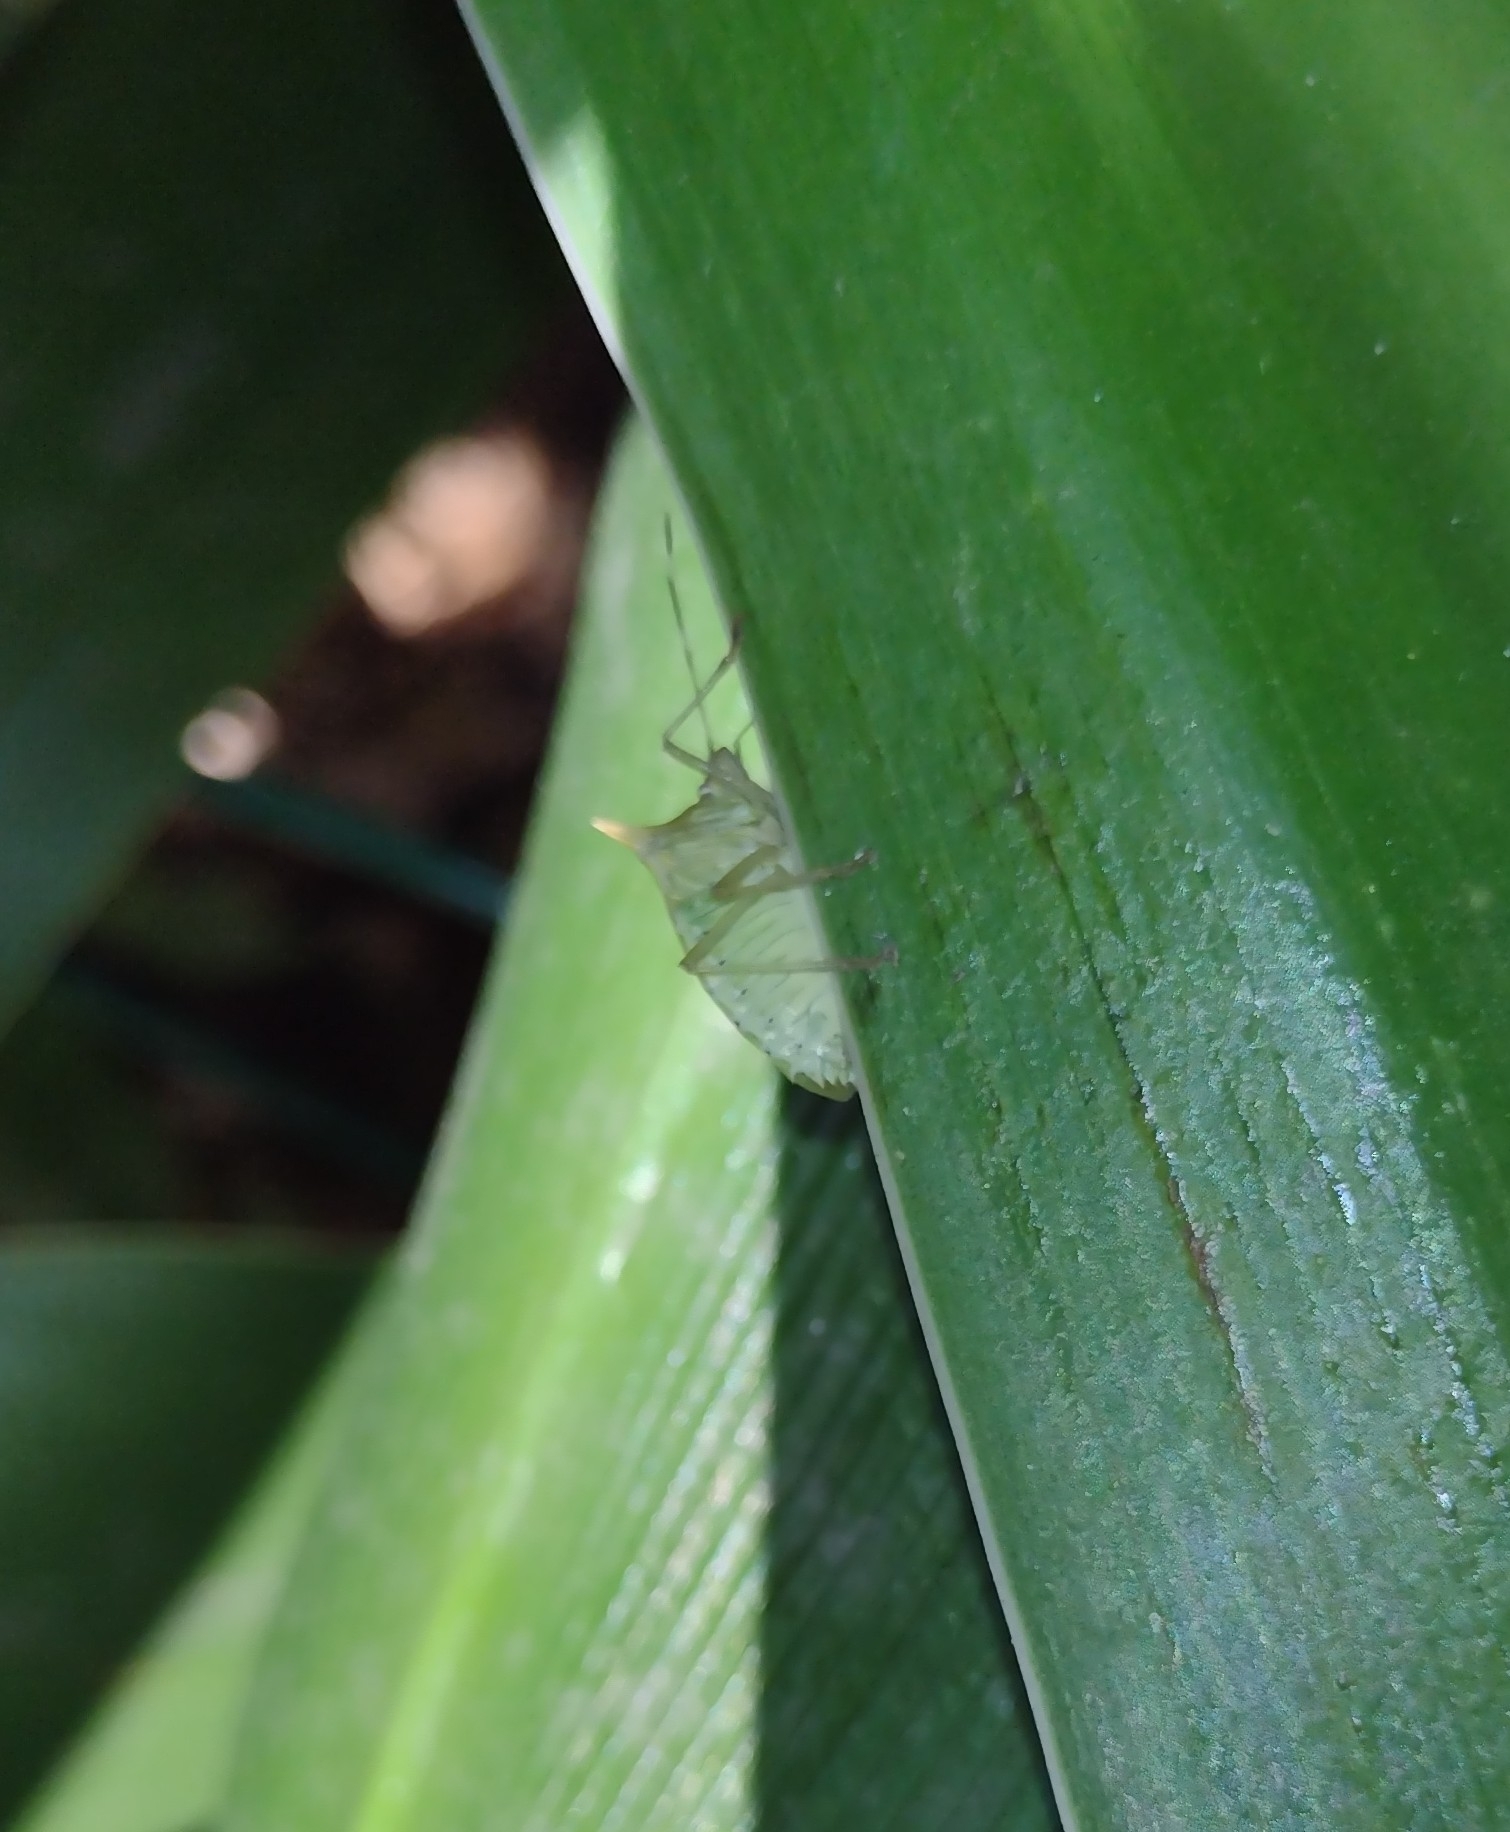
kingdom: Animalia
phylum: Arthropoda
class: Insecta
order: Hemiptera
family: Pentatomidae
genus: Arvelius
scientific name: Arvelius albopunctatus
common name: Tomato stink bug
